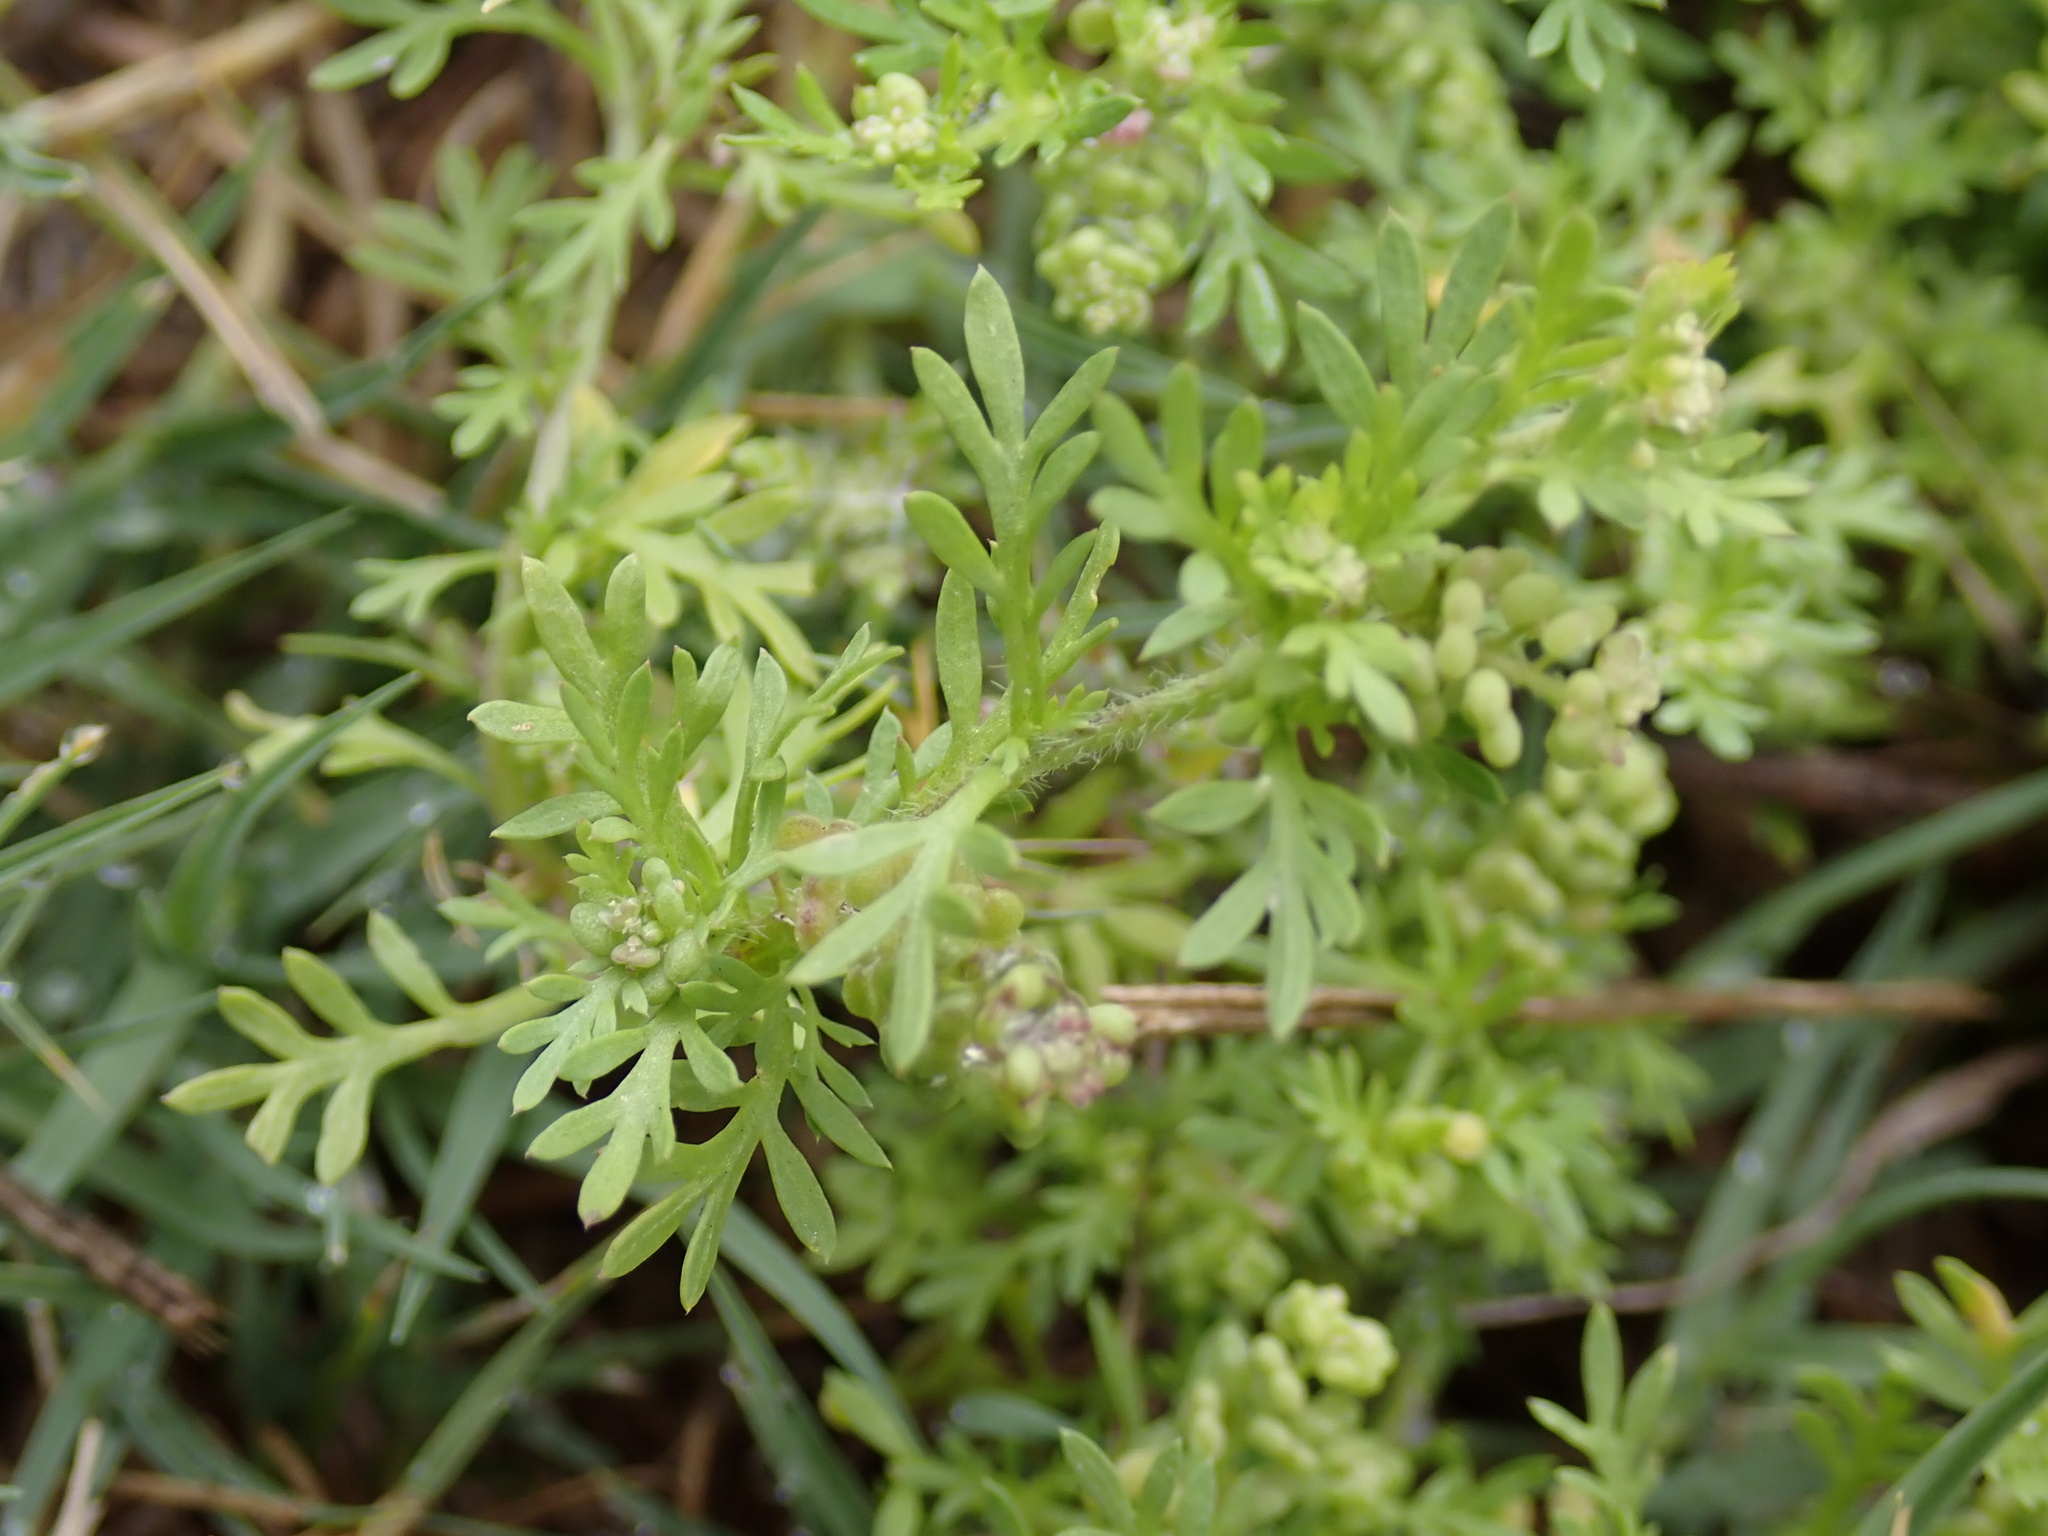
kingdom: Plantae
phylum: Tracheophyta
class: Magnoliopsida
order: Brassicales
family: Brassicaceae
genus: Lepidium
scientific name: Lepidium didymum
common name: Lesser swinecress
